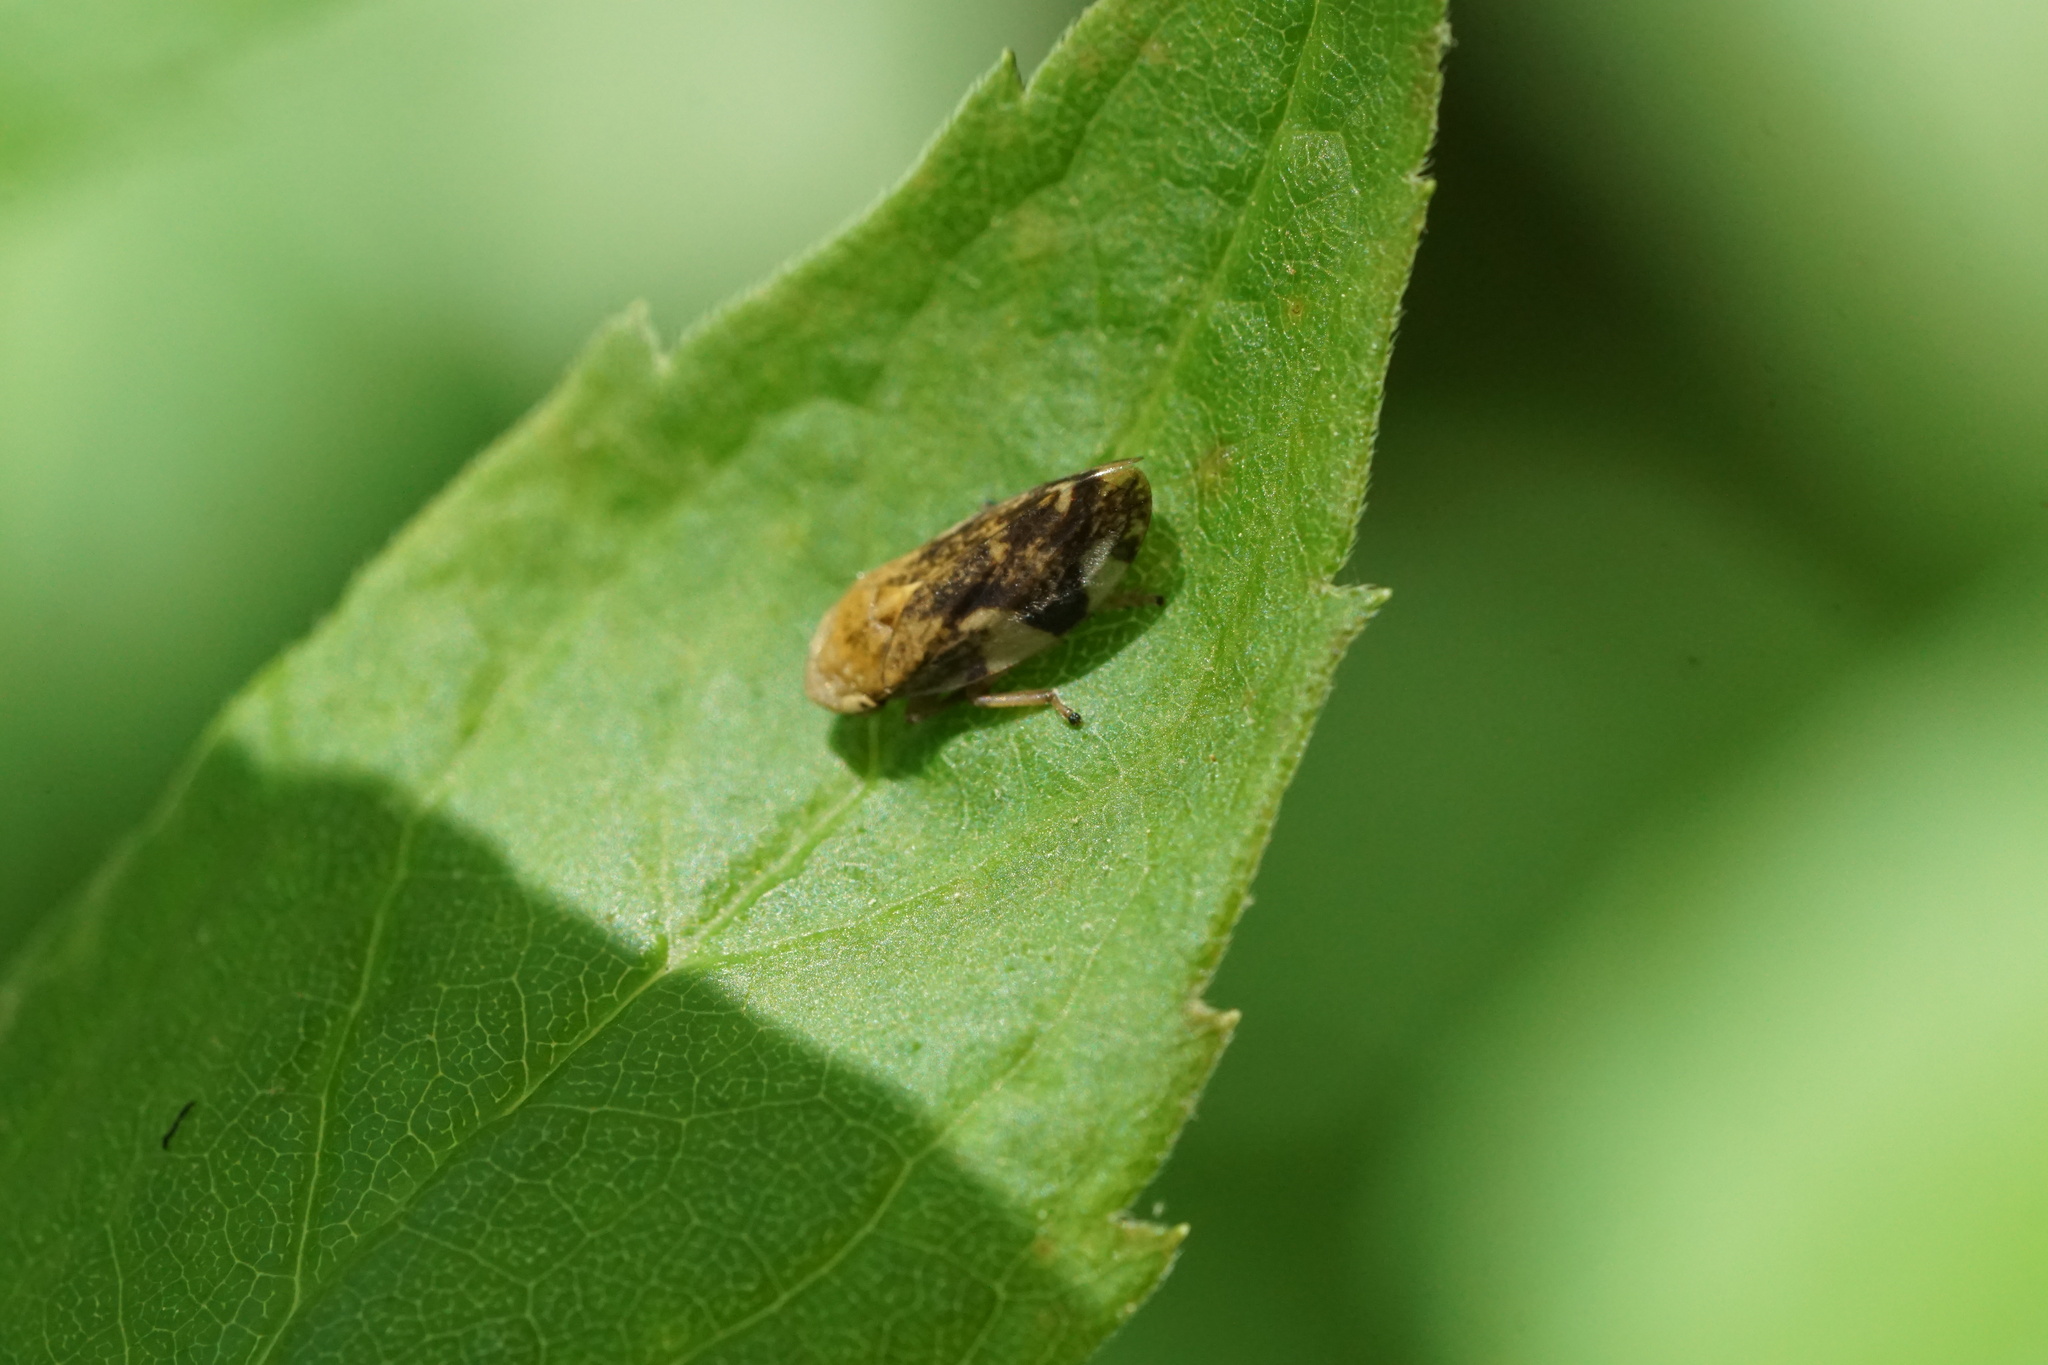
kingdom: Animalia
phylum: Arthropoda
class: Insecta
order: Hemiptera
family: Aphrophoridae
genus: Philaenus
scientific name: Philaenus spumarius
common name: Meadow spittlebug
